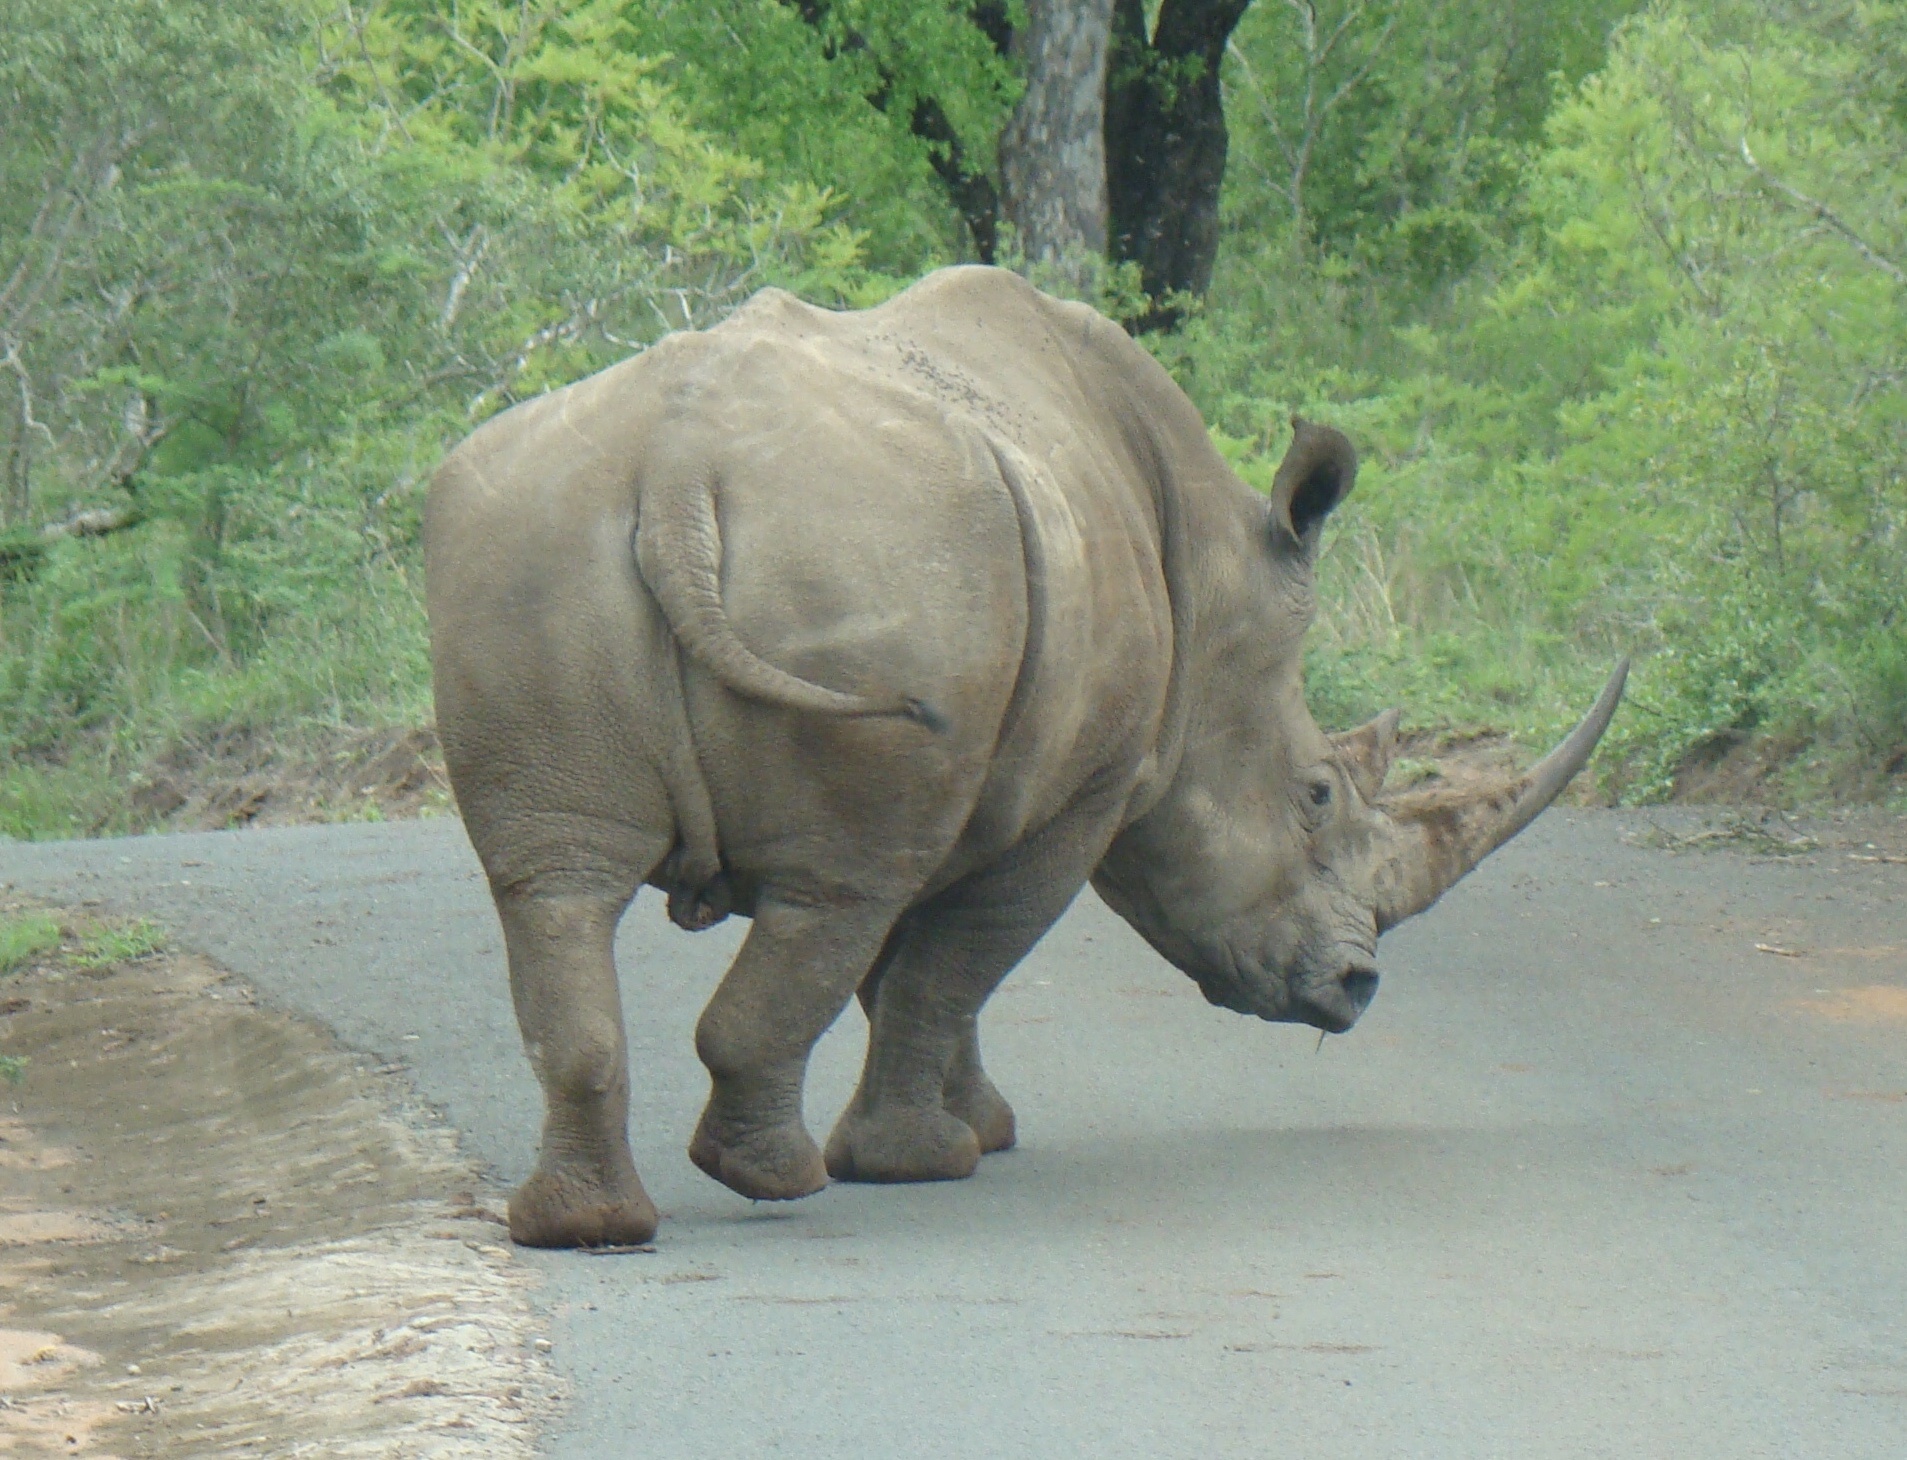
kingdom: Animalia
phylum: Chordata
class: Mammalia
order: Perissodactyla
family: Rhinocerotidae
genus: Ceratotherium
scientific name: Ceratotherium simum
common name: White rhinoceros
